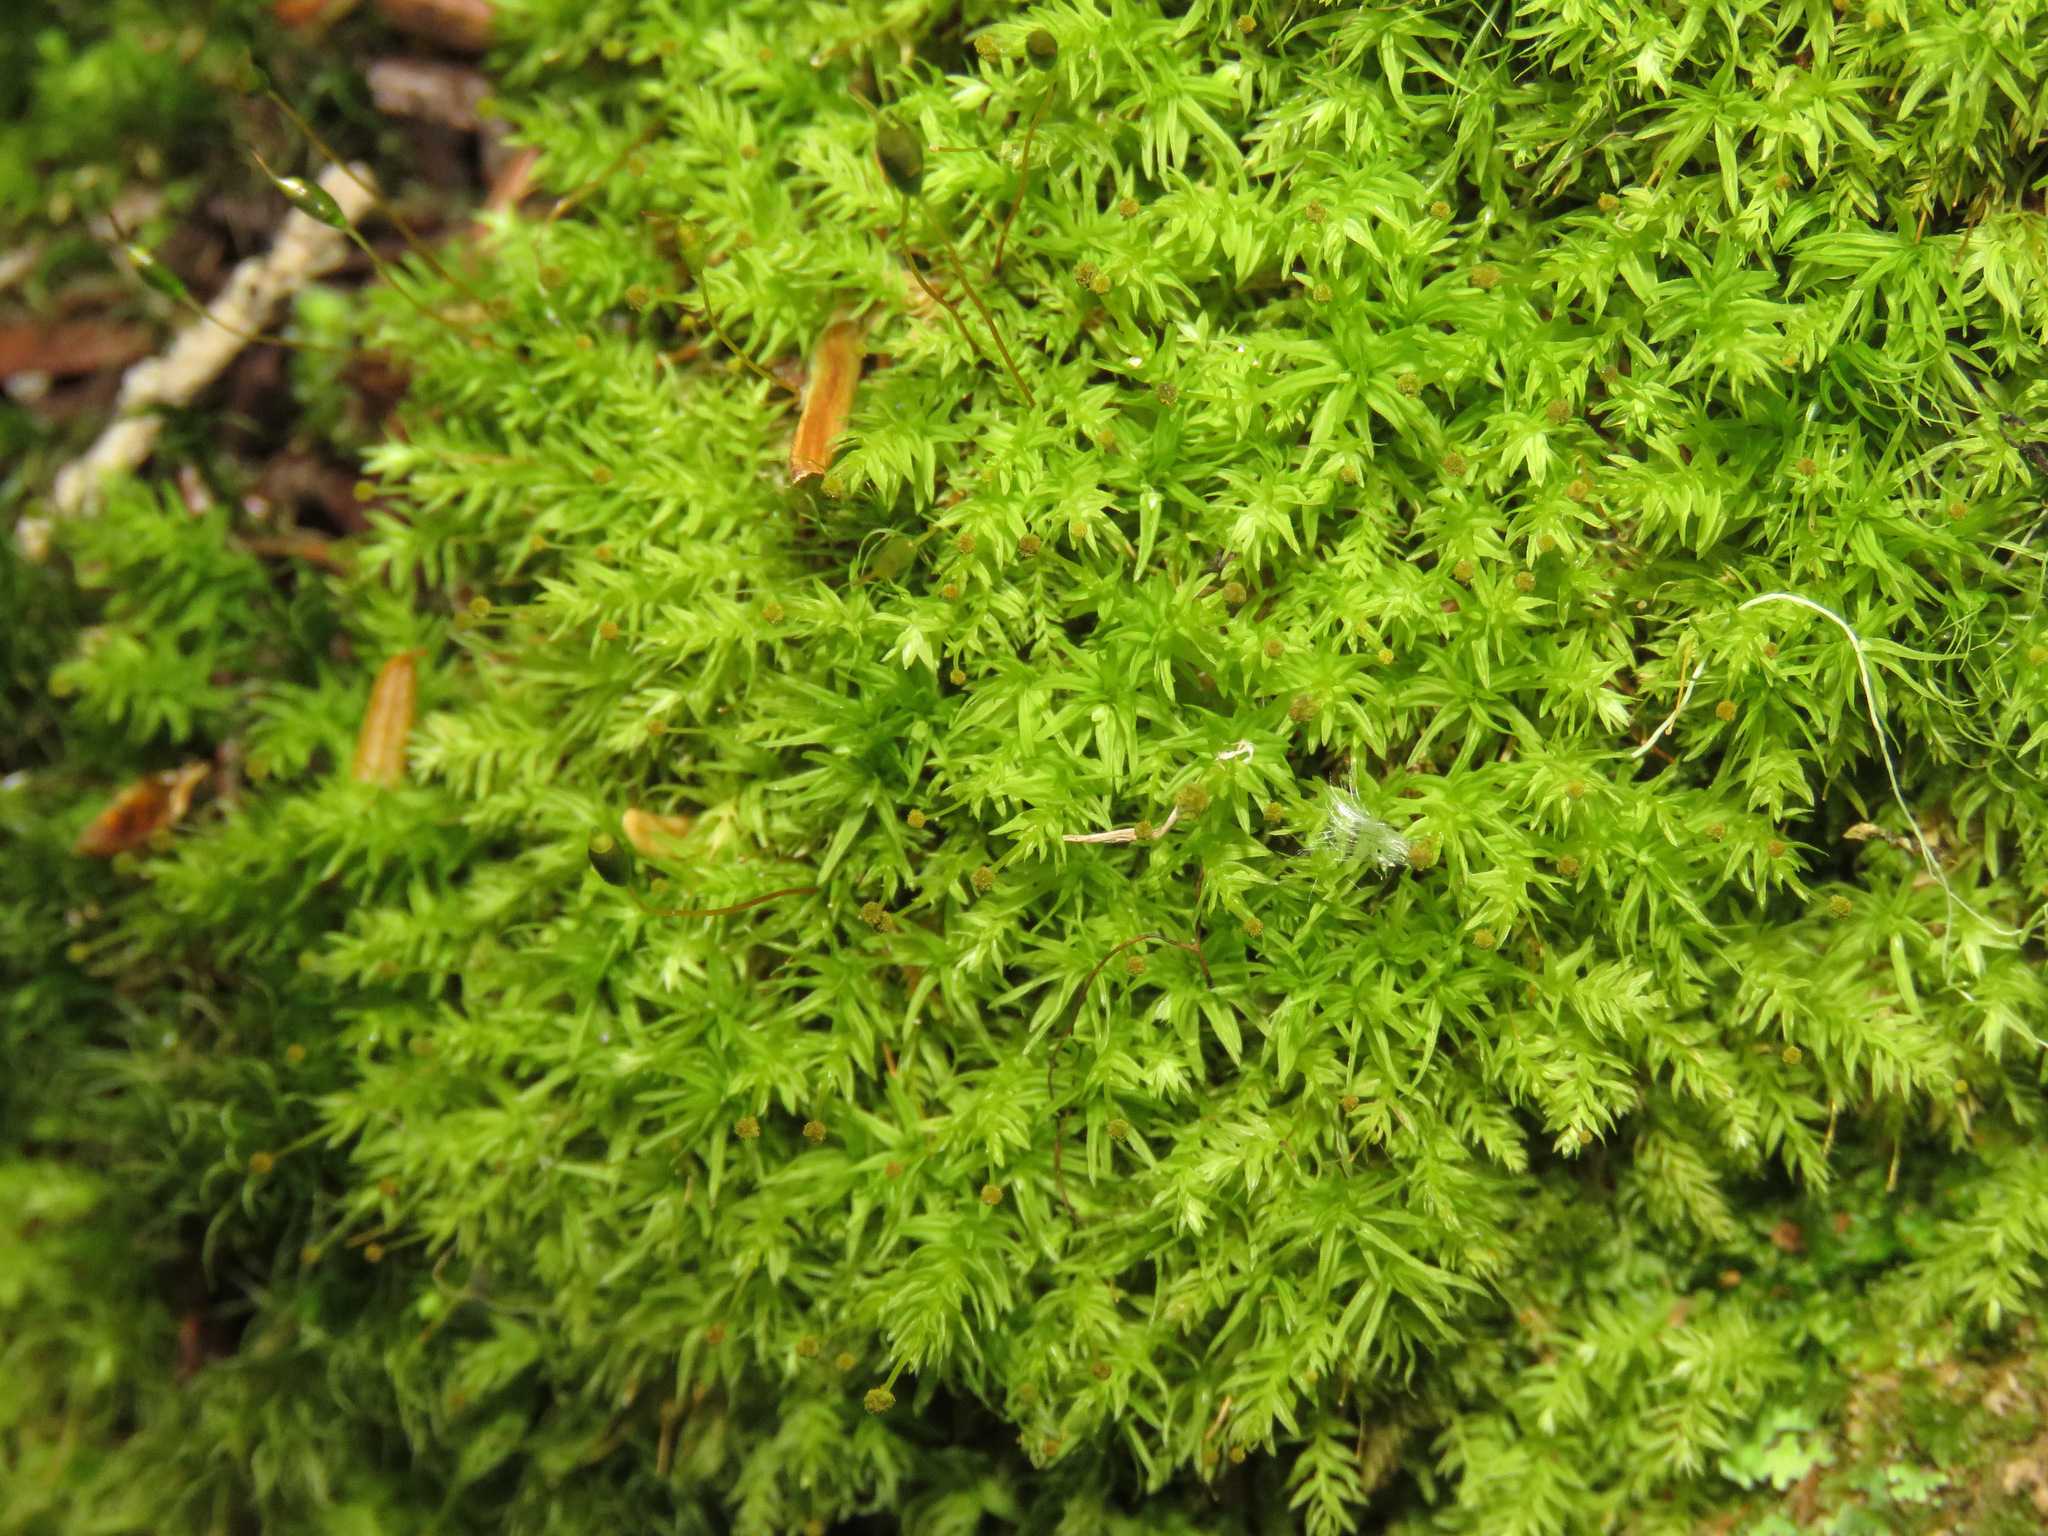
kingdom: Plantae
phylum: Bryophyta
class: Bryopsida
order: Aulacomniales
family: Aulacomniaceae
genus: Aulacomnium
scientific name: Aulacomnium androgynum
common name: Little groove moss
